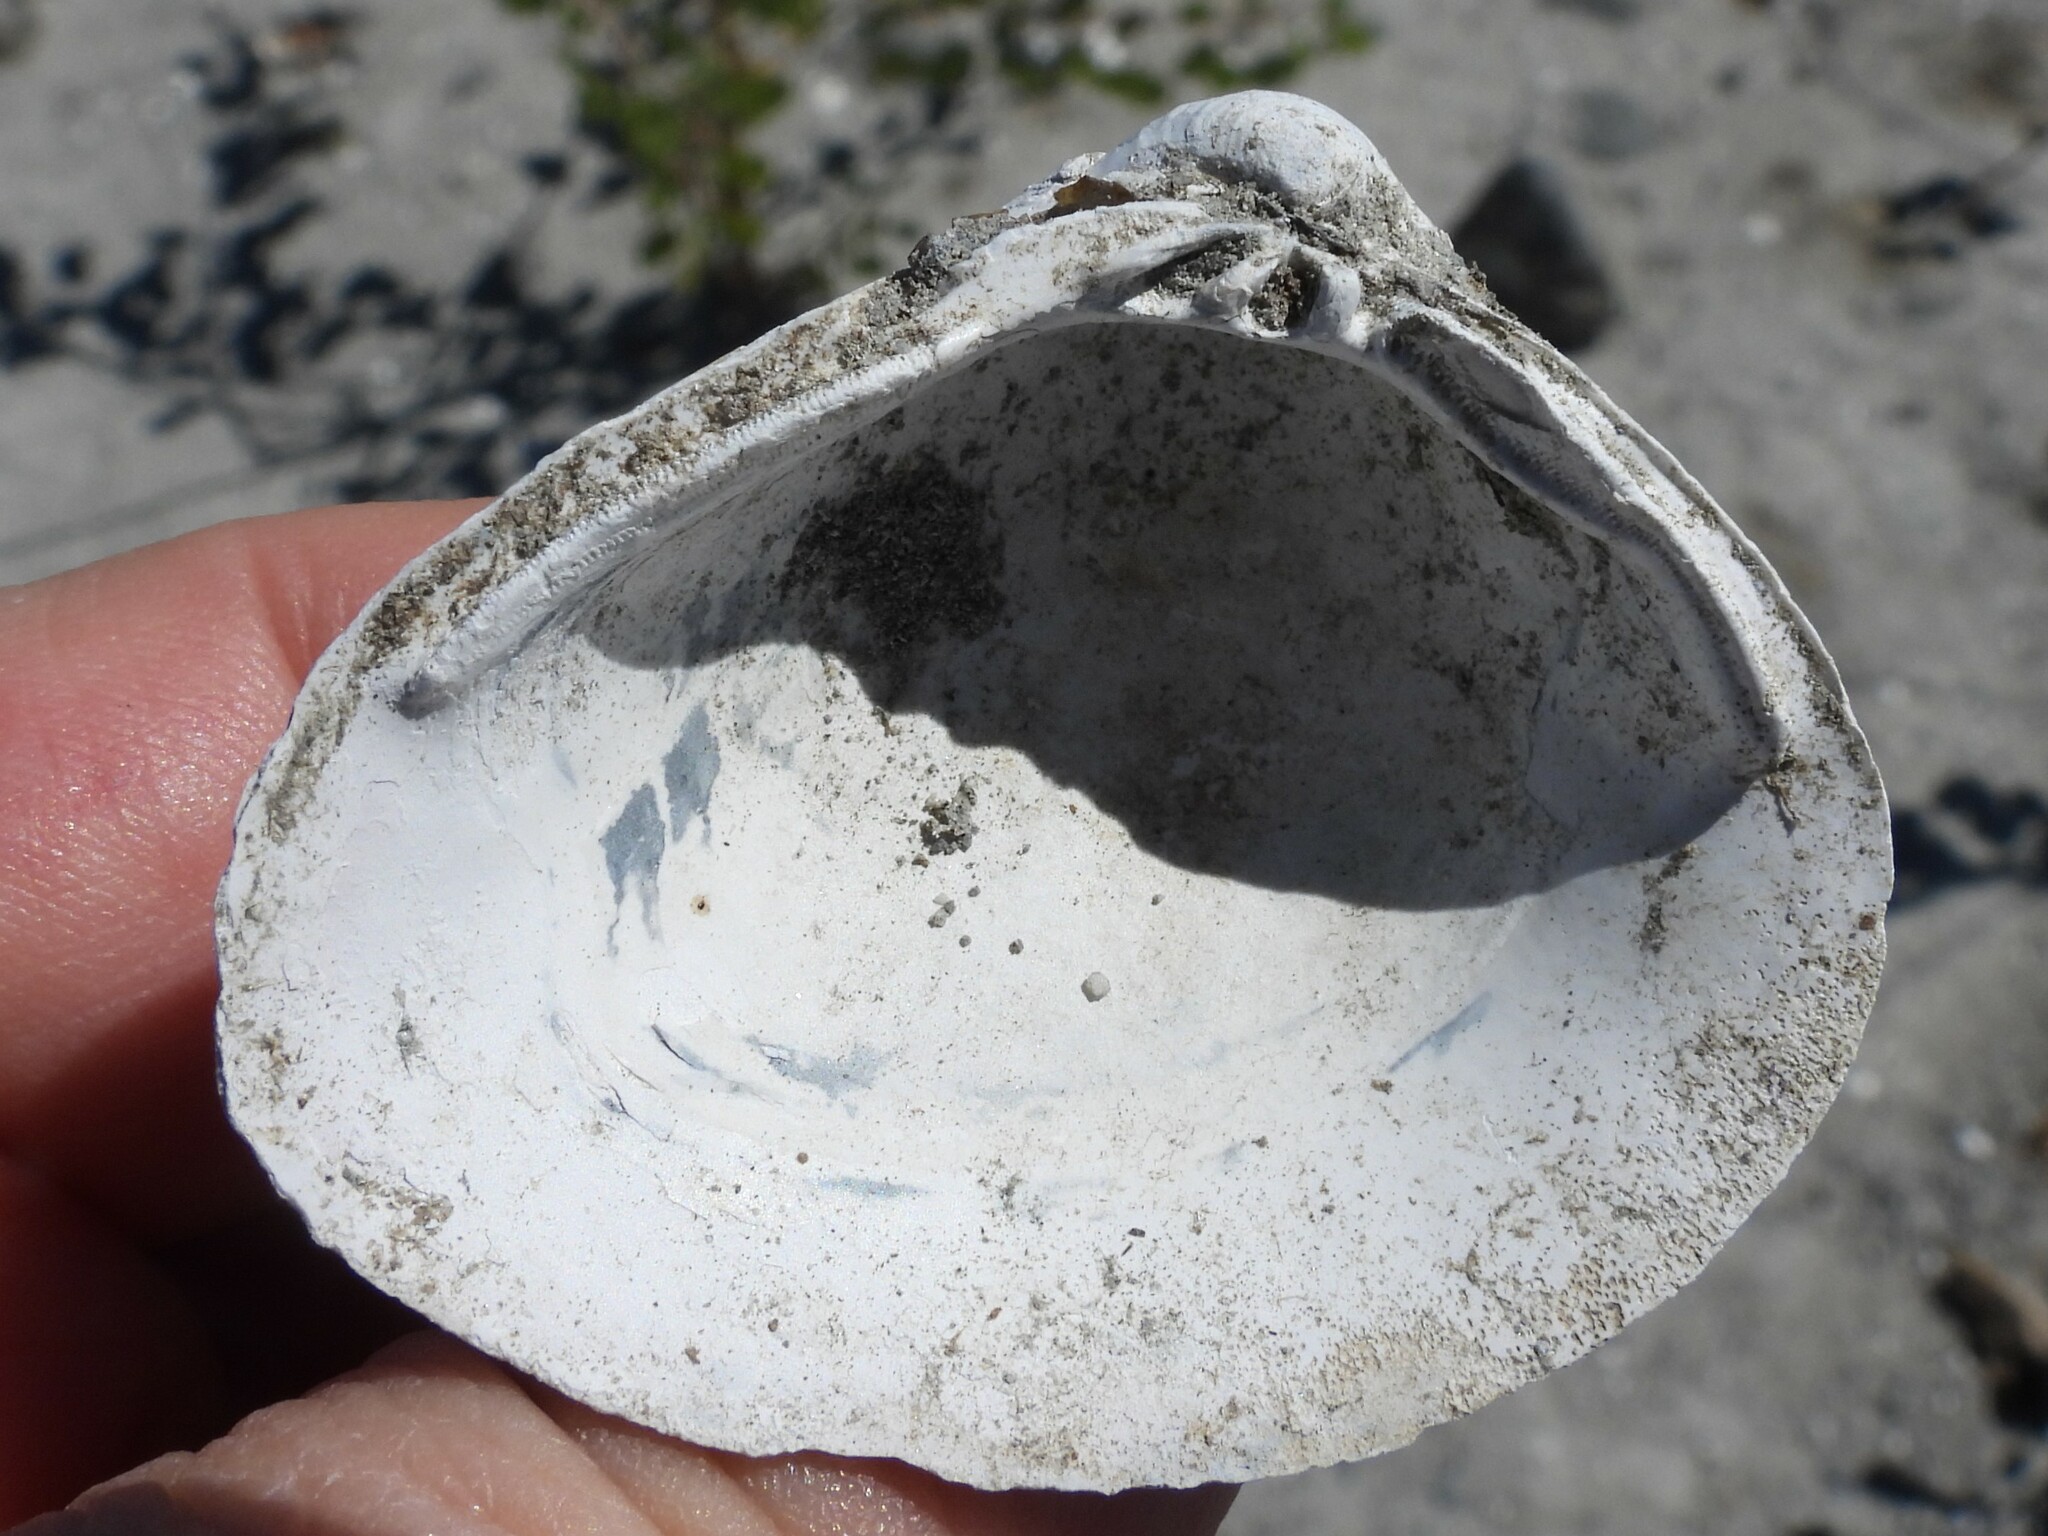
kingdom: Animalia
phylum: Mollusca
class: Bivalvia
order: Venerida
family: Cyrenidae
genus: Corbicula
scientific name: Corbicula fluminea
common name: Asian clam
